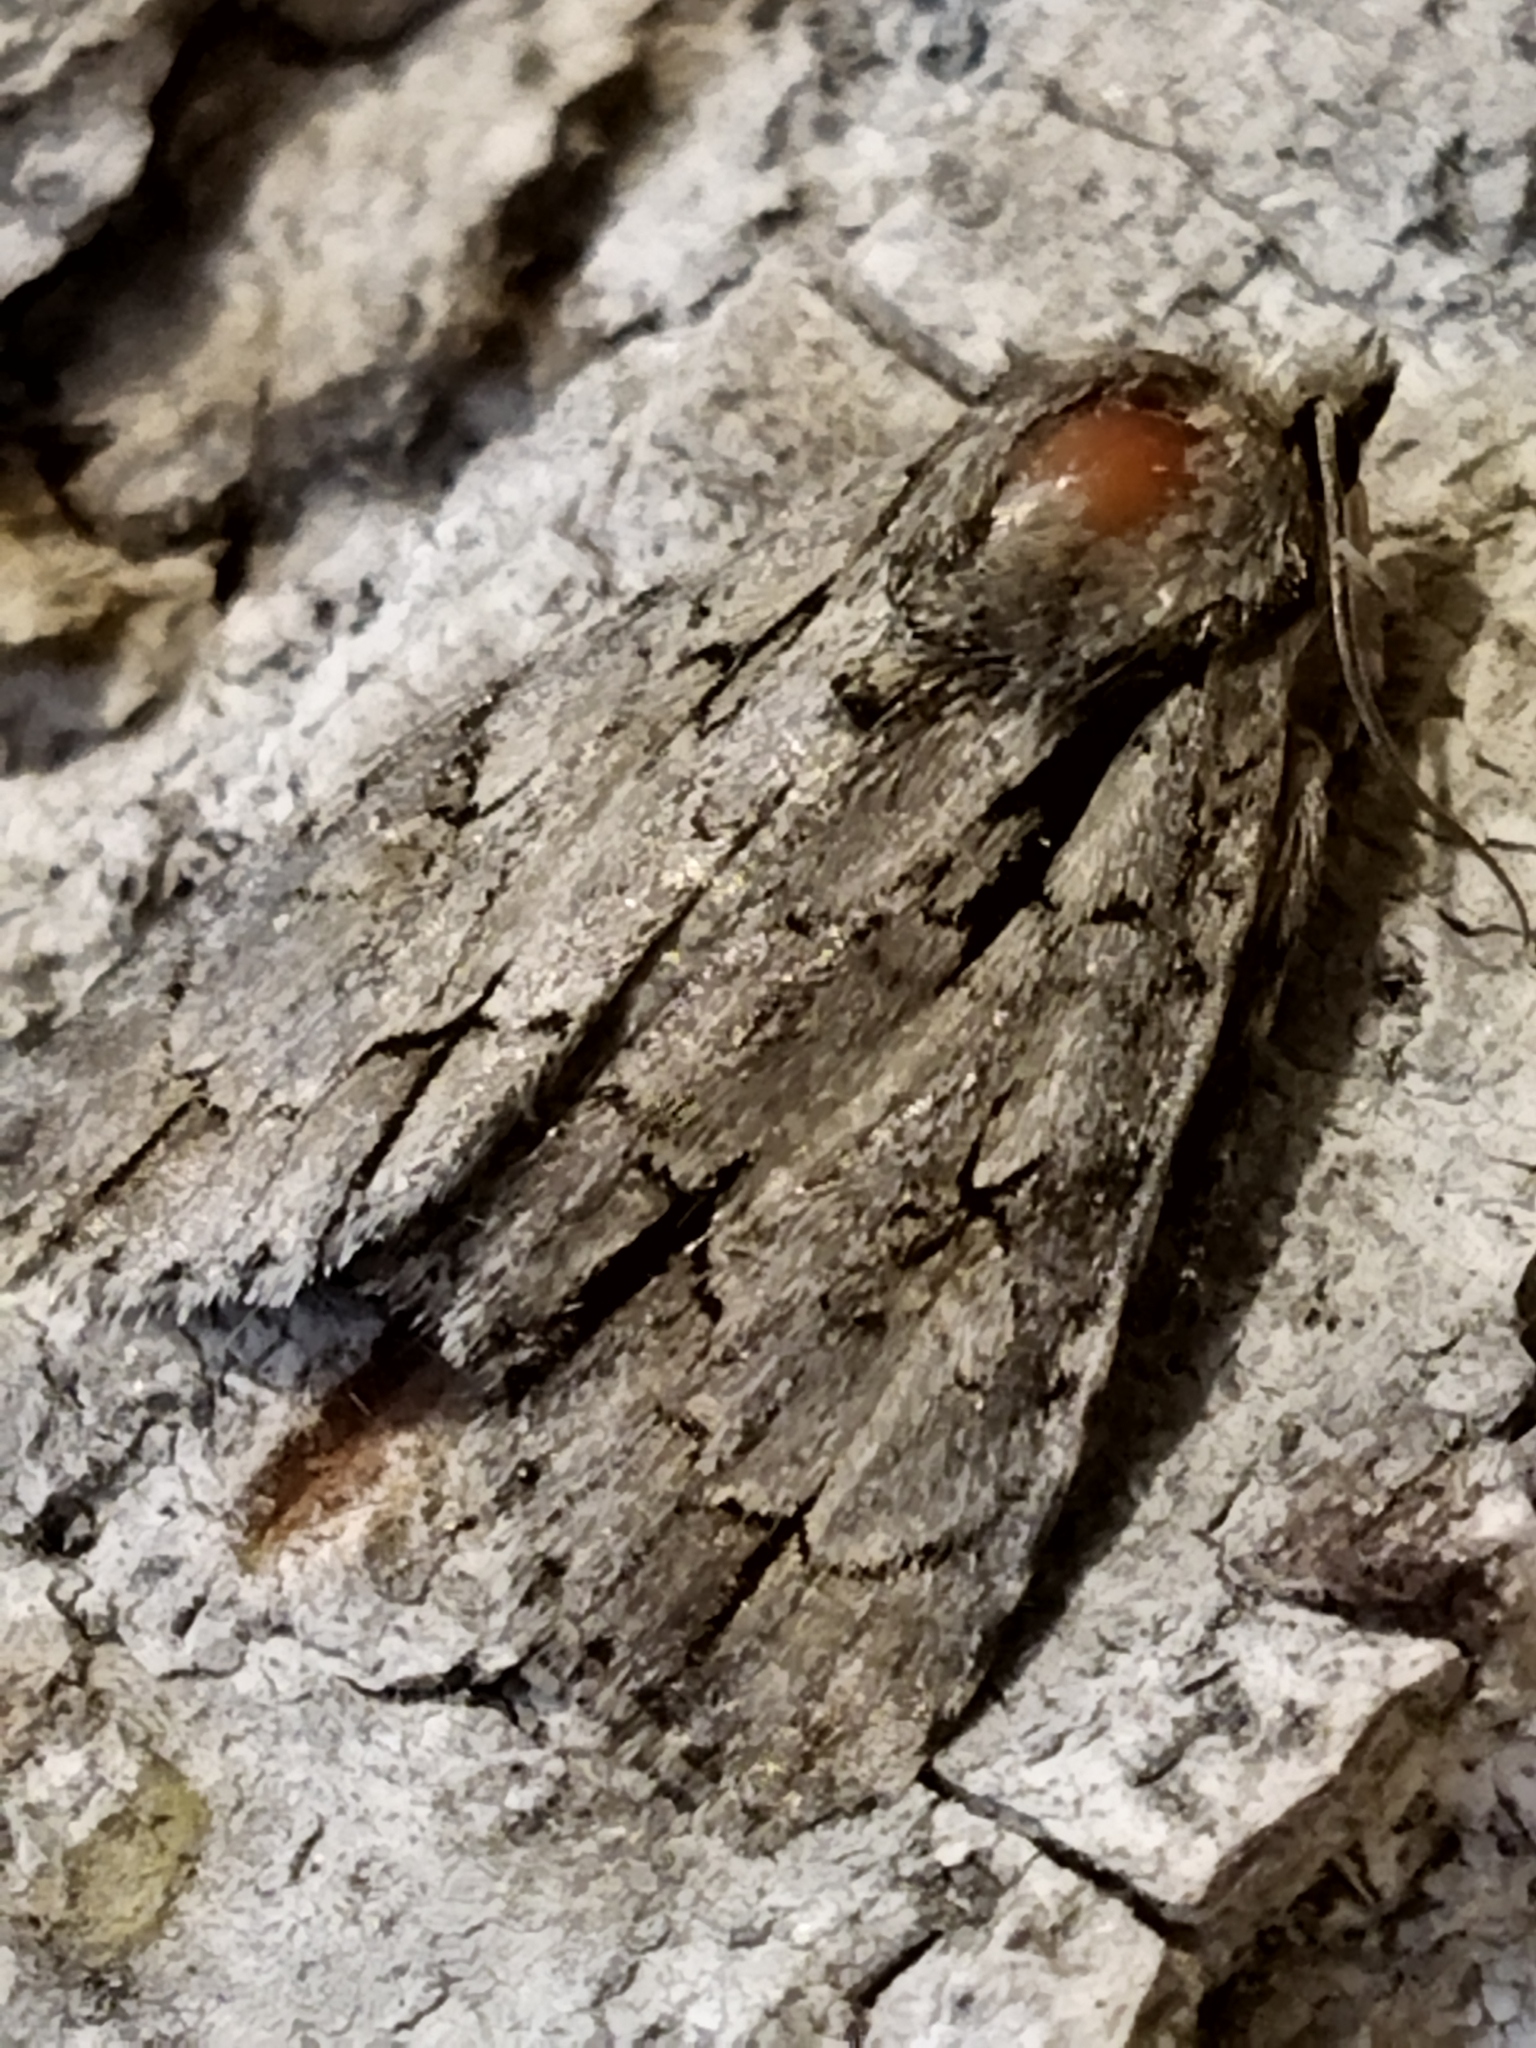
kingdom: Animalia
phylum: Arthropoda
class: Insecta
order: Lepidoptera
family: Noctuidae
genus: Acronicta
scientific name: Acronicta
